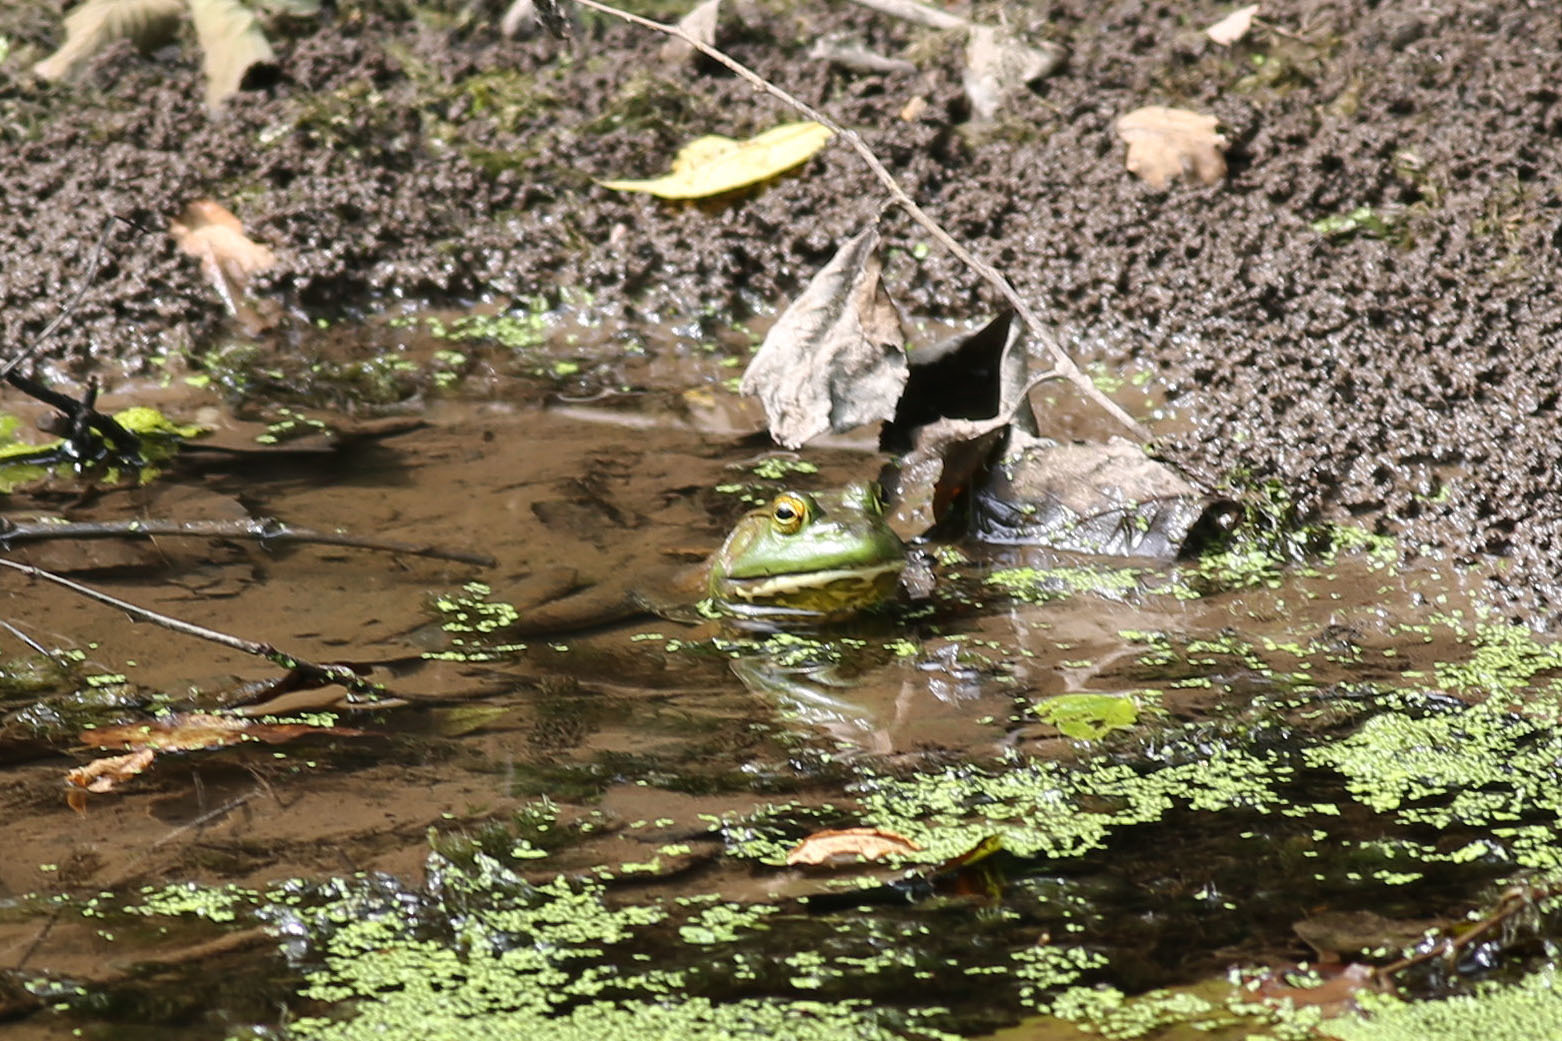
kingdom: Animalia
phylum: Chordata
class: Amphibia
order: Anura
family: Ranidae
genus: Lithobates
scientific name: Lithobates catesbeianus
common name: American bullfrog
